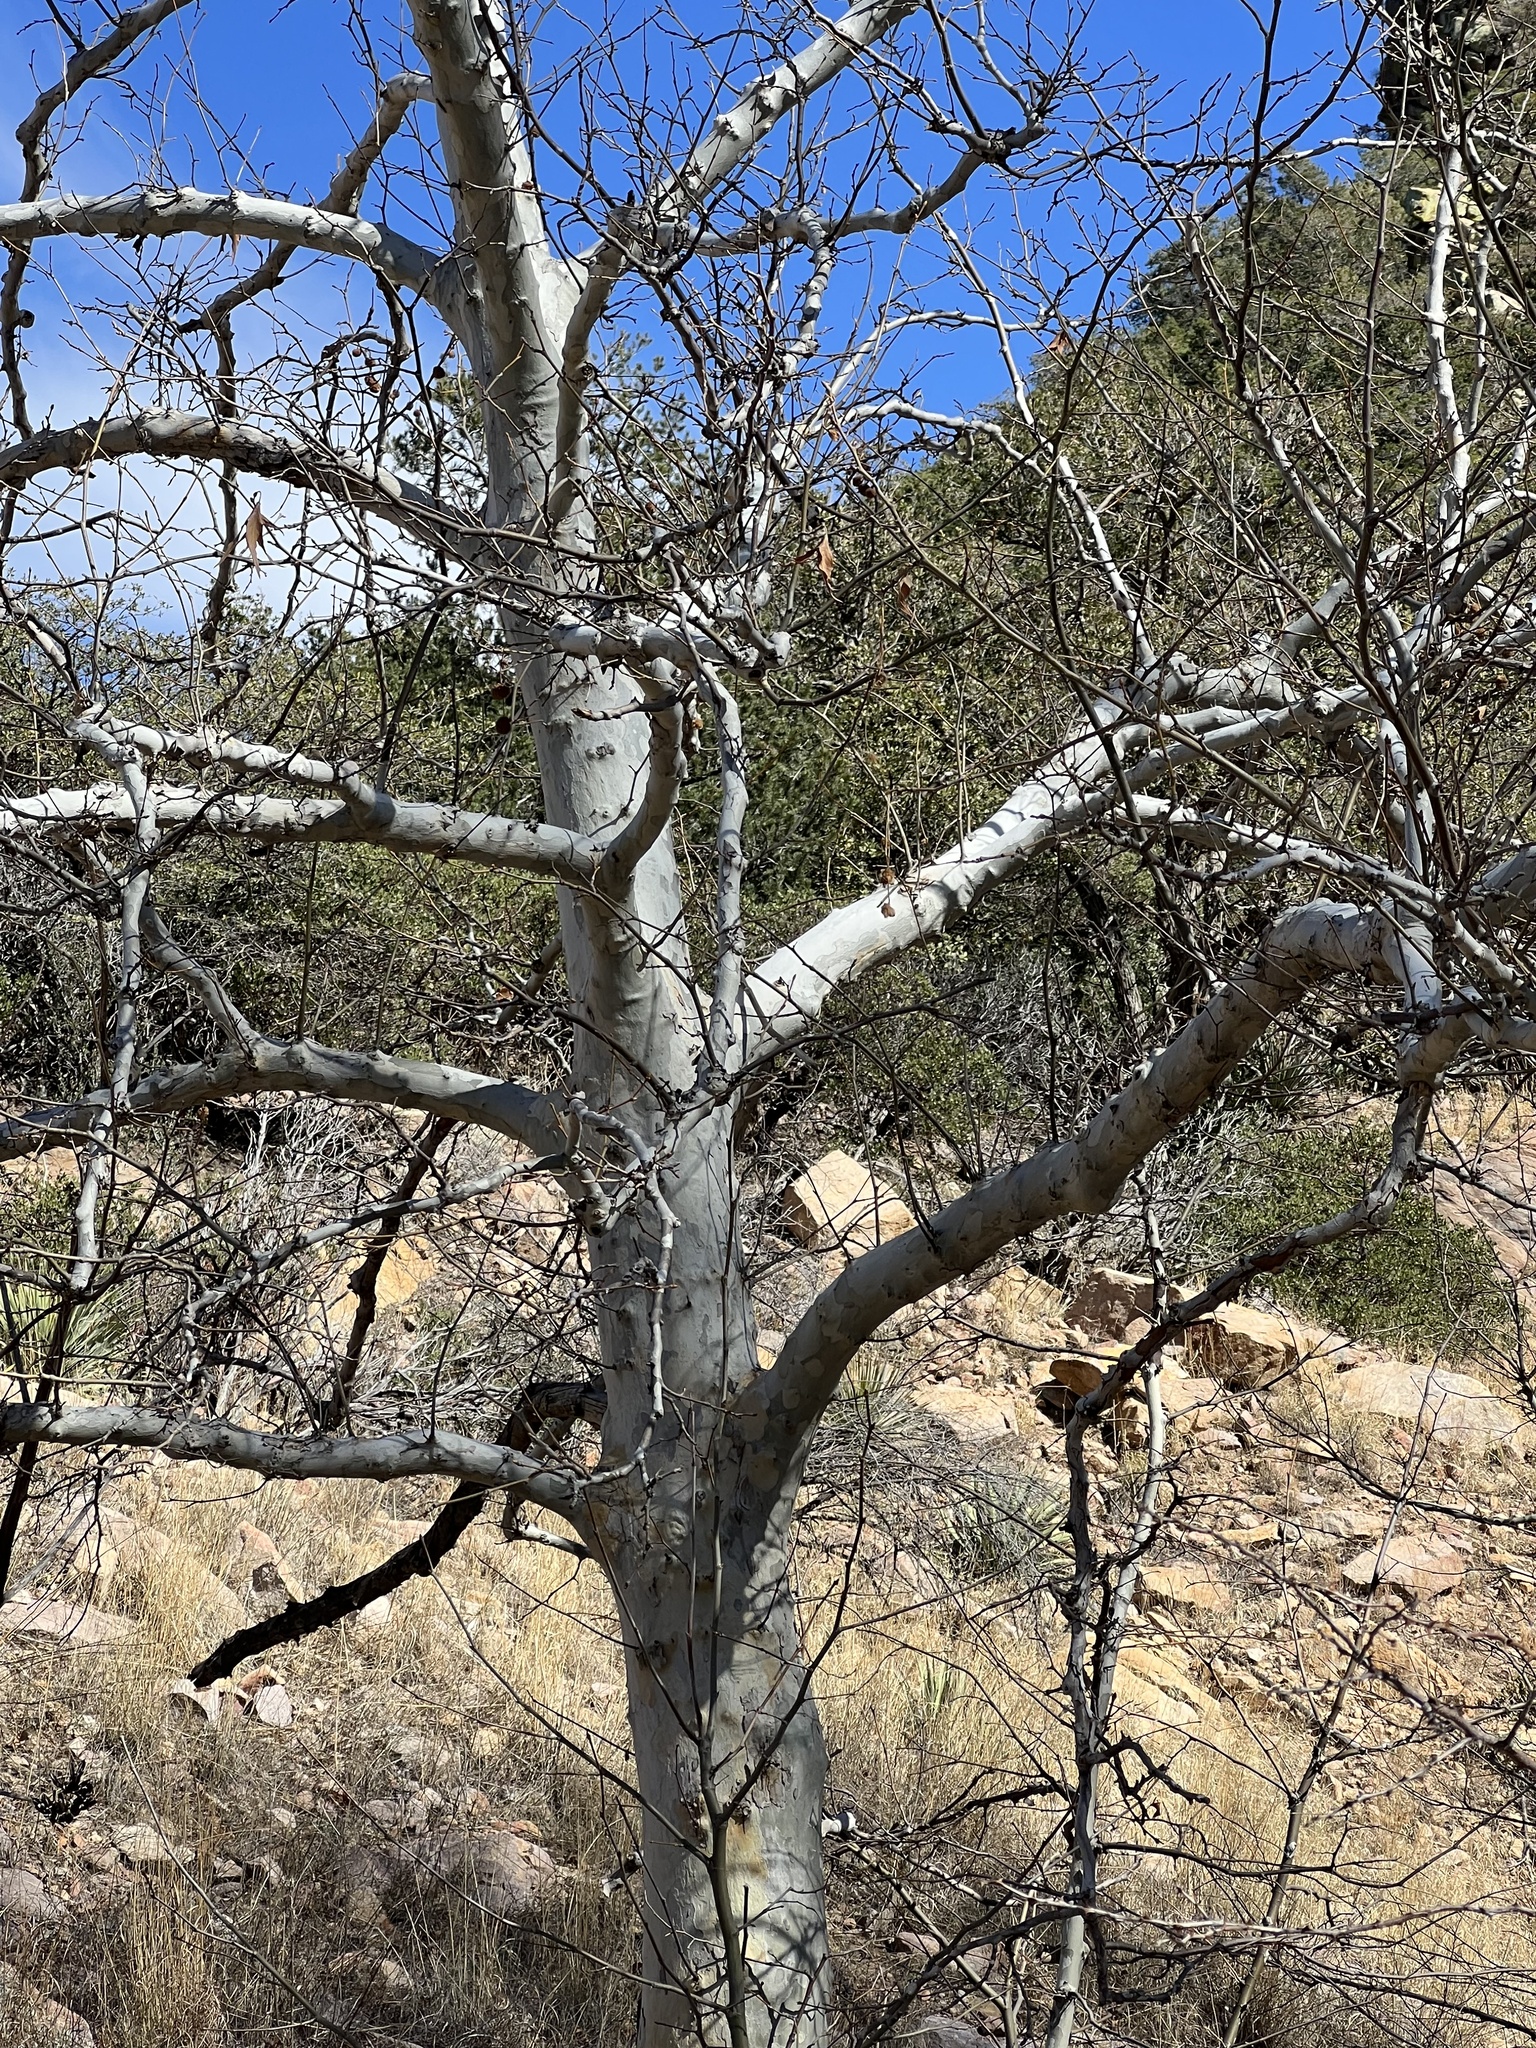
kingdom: Plantae
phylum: Tracheophyta
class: Magnoliopsida
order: Proteales
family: Platanaceae
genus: Platanus
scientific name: Platanus wrightii
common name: Arizona sycamore
